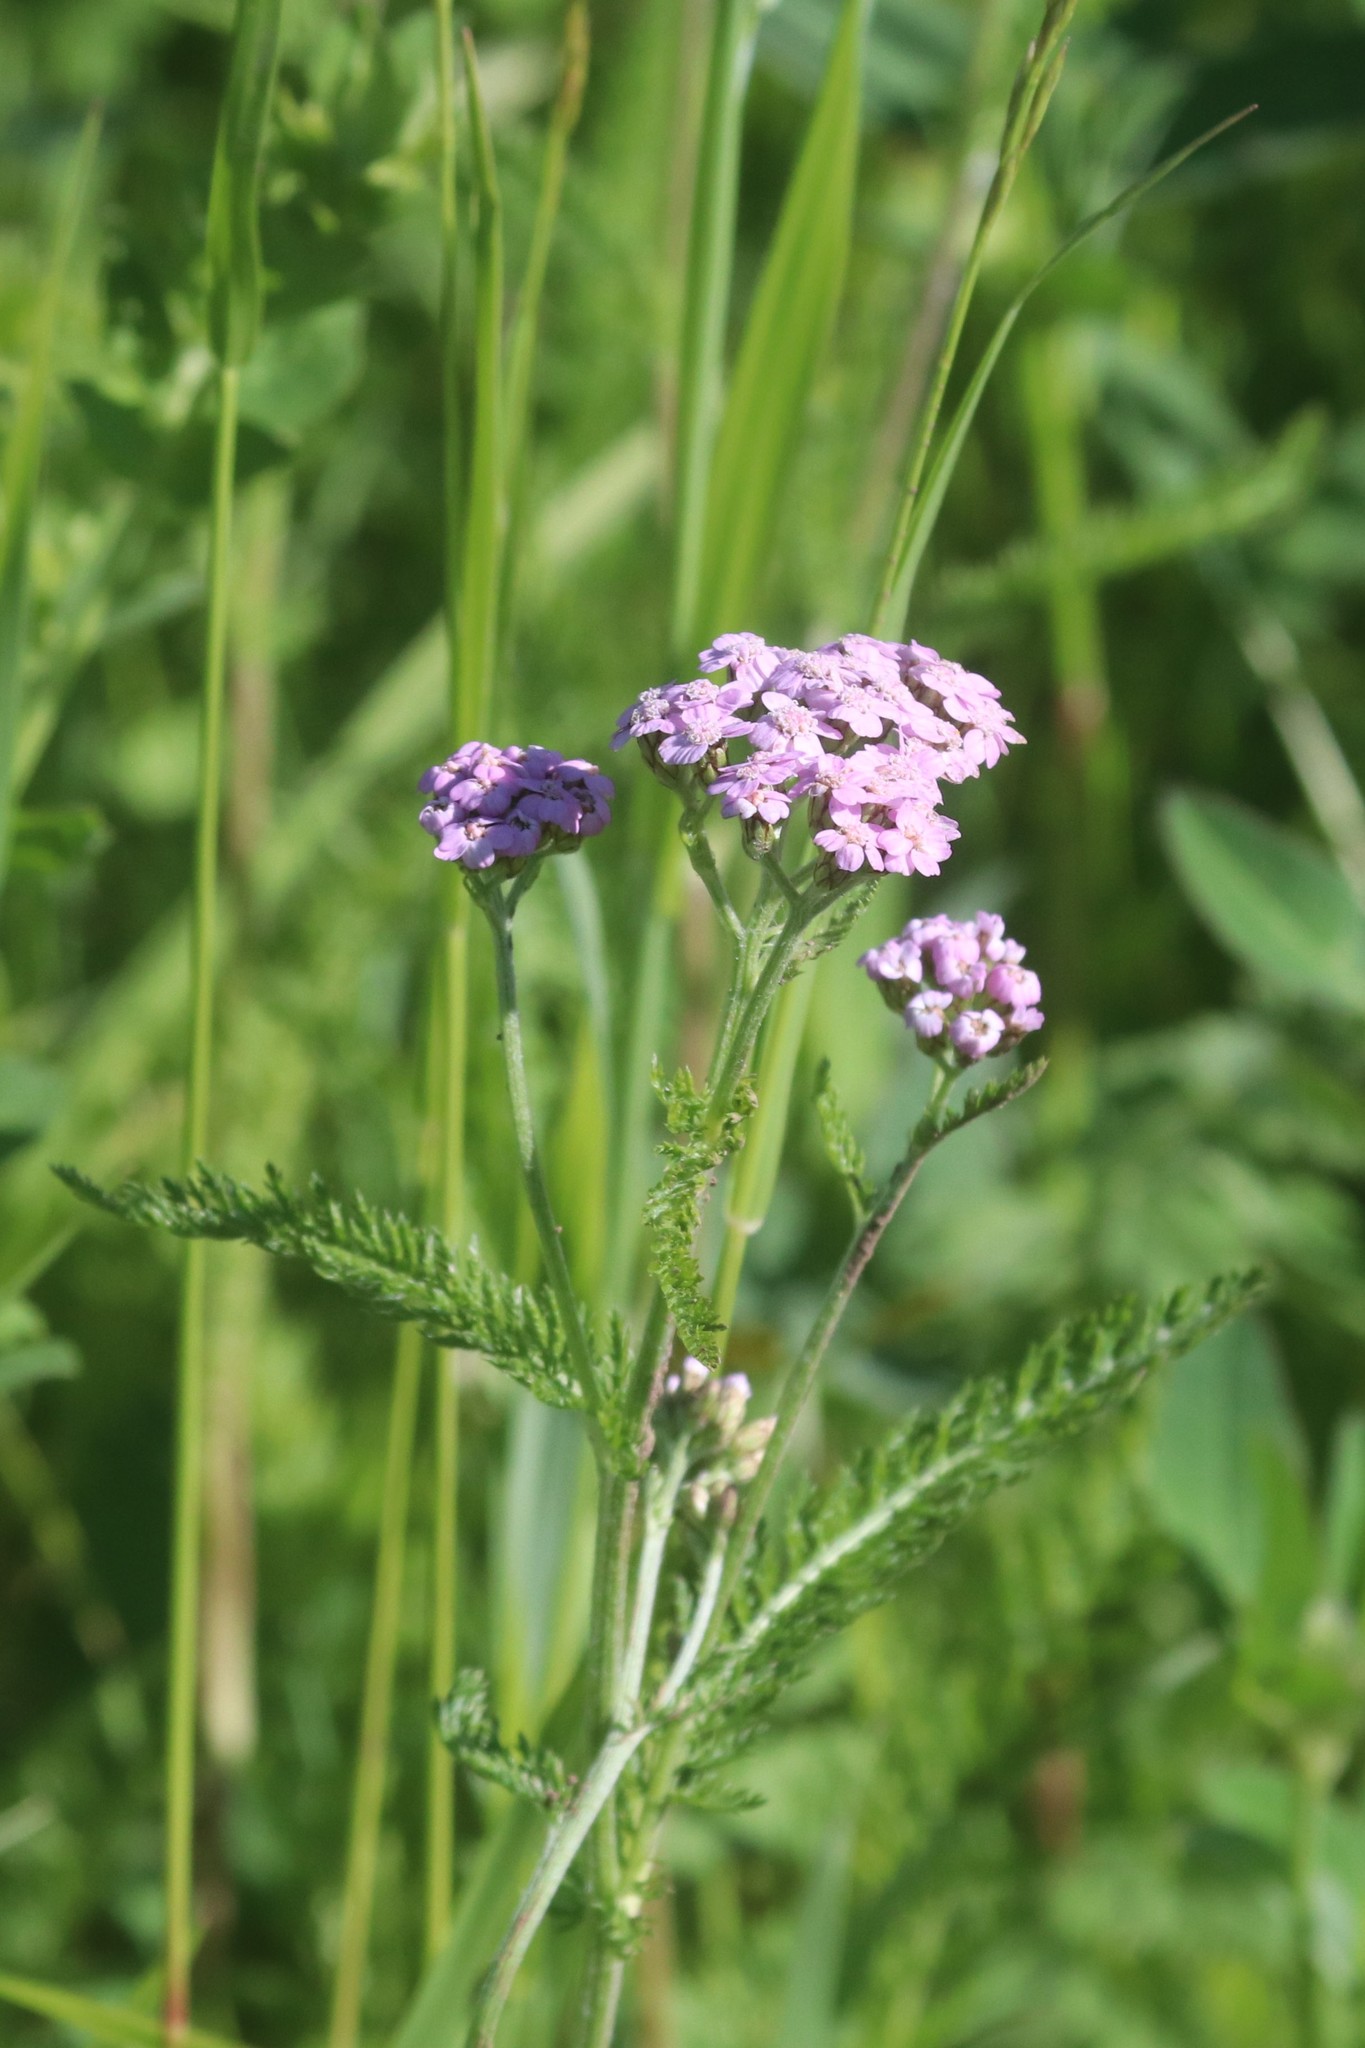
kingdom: Plantae
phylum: Tracheophyta
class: Magnoliopsida
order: Asterales
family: Asteraceae
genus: Achillea
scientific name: Achillea millefolium
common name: Yarrow
